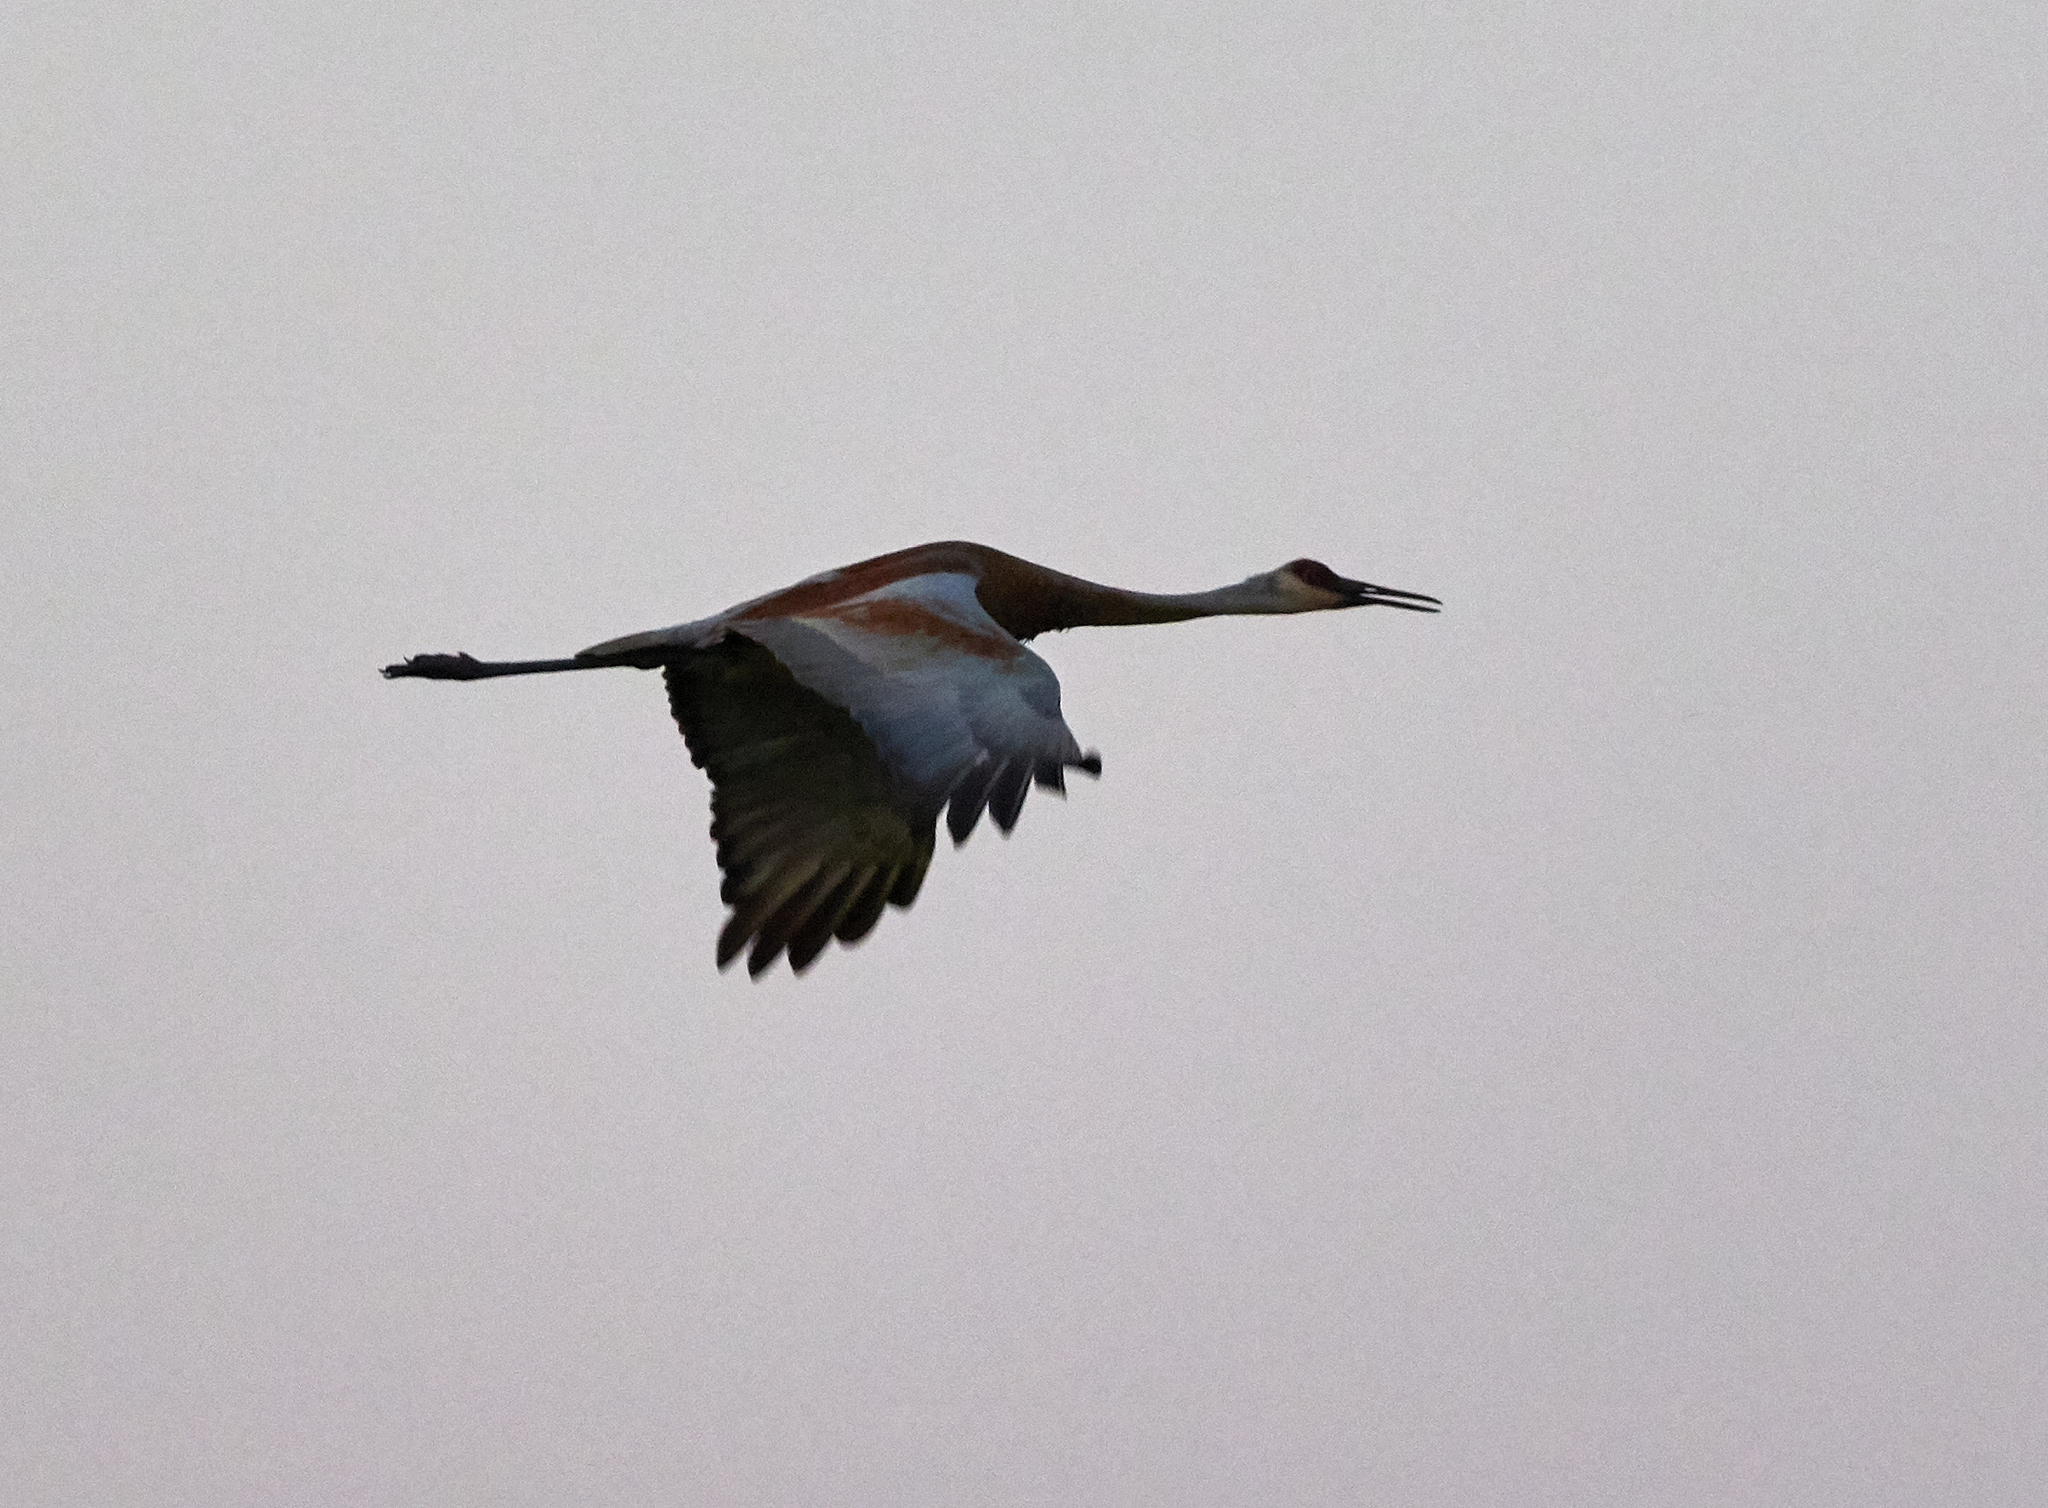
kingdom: Animalia
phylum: Chordata
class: Aves
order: Gruiformes
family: Gruidae
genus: Grus
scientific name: Grus canadensis
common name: Sandhill crane
